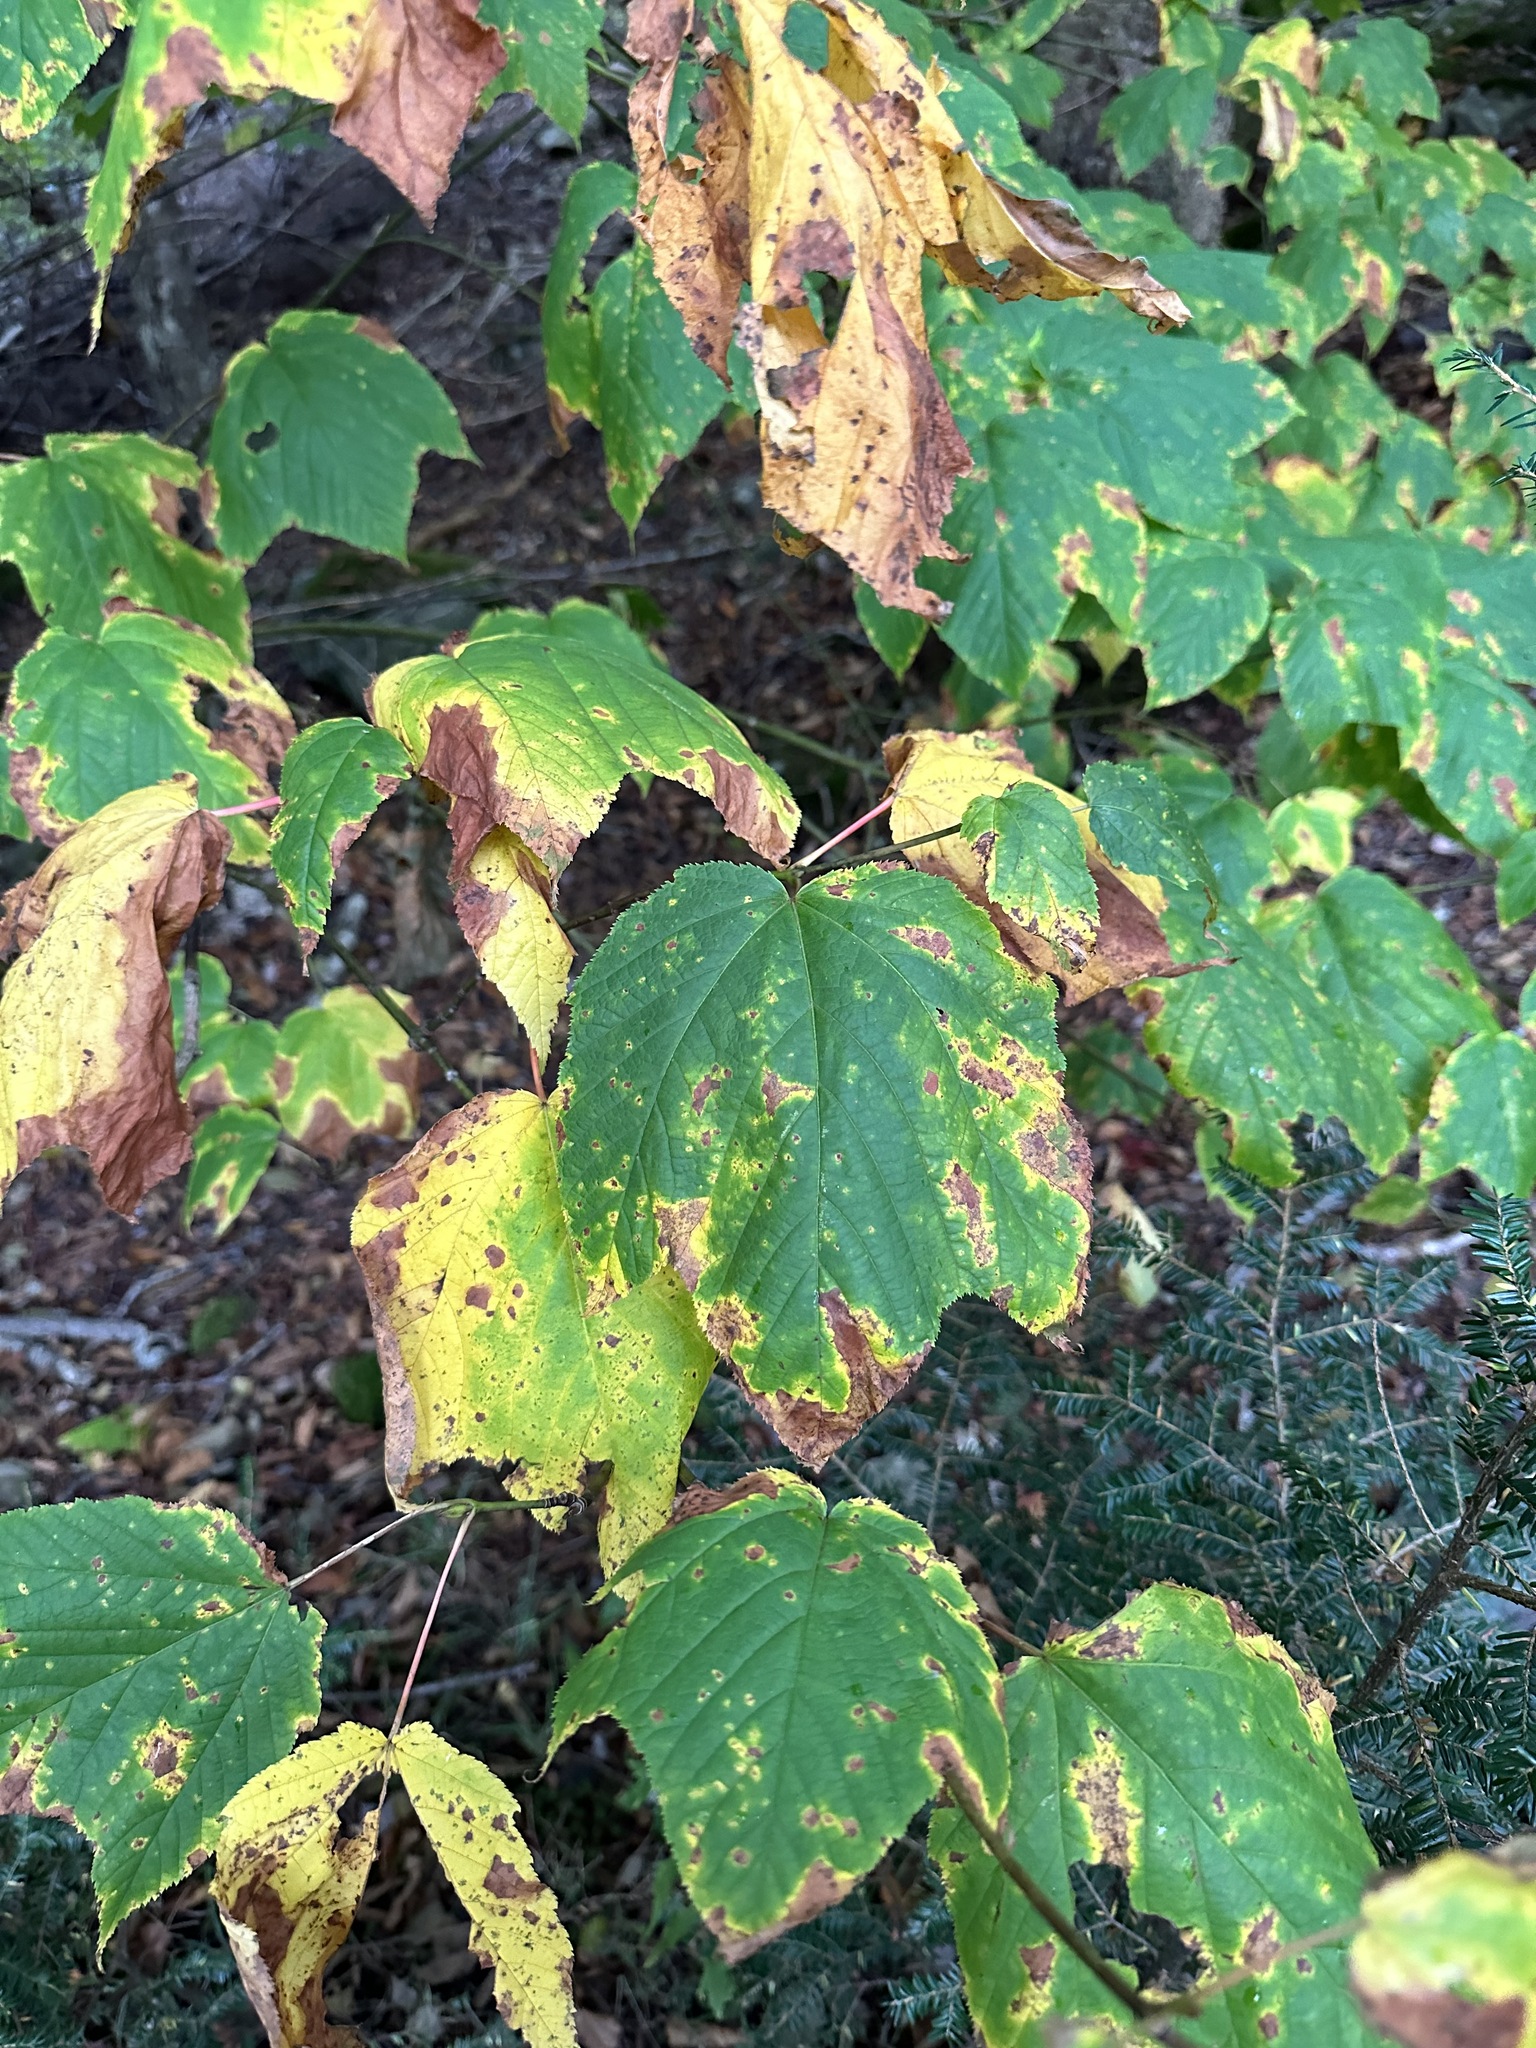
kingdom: Plantae
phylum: Tracheophyta
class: Magnoliopsida
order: Sapindales
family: Sapindaceae
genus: Acer
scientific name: Acer pensylvanicum
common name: Moosewood
